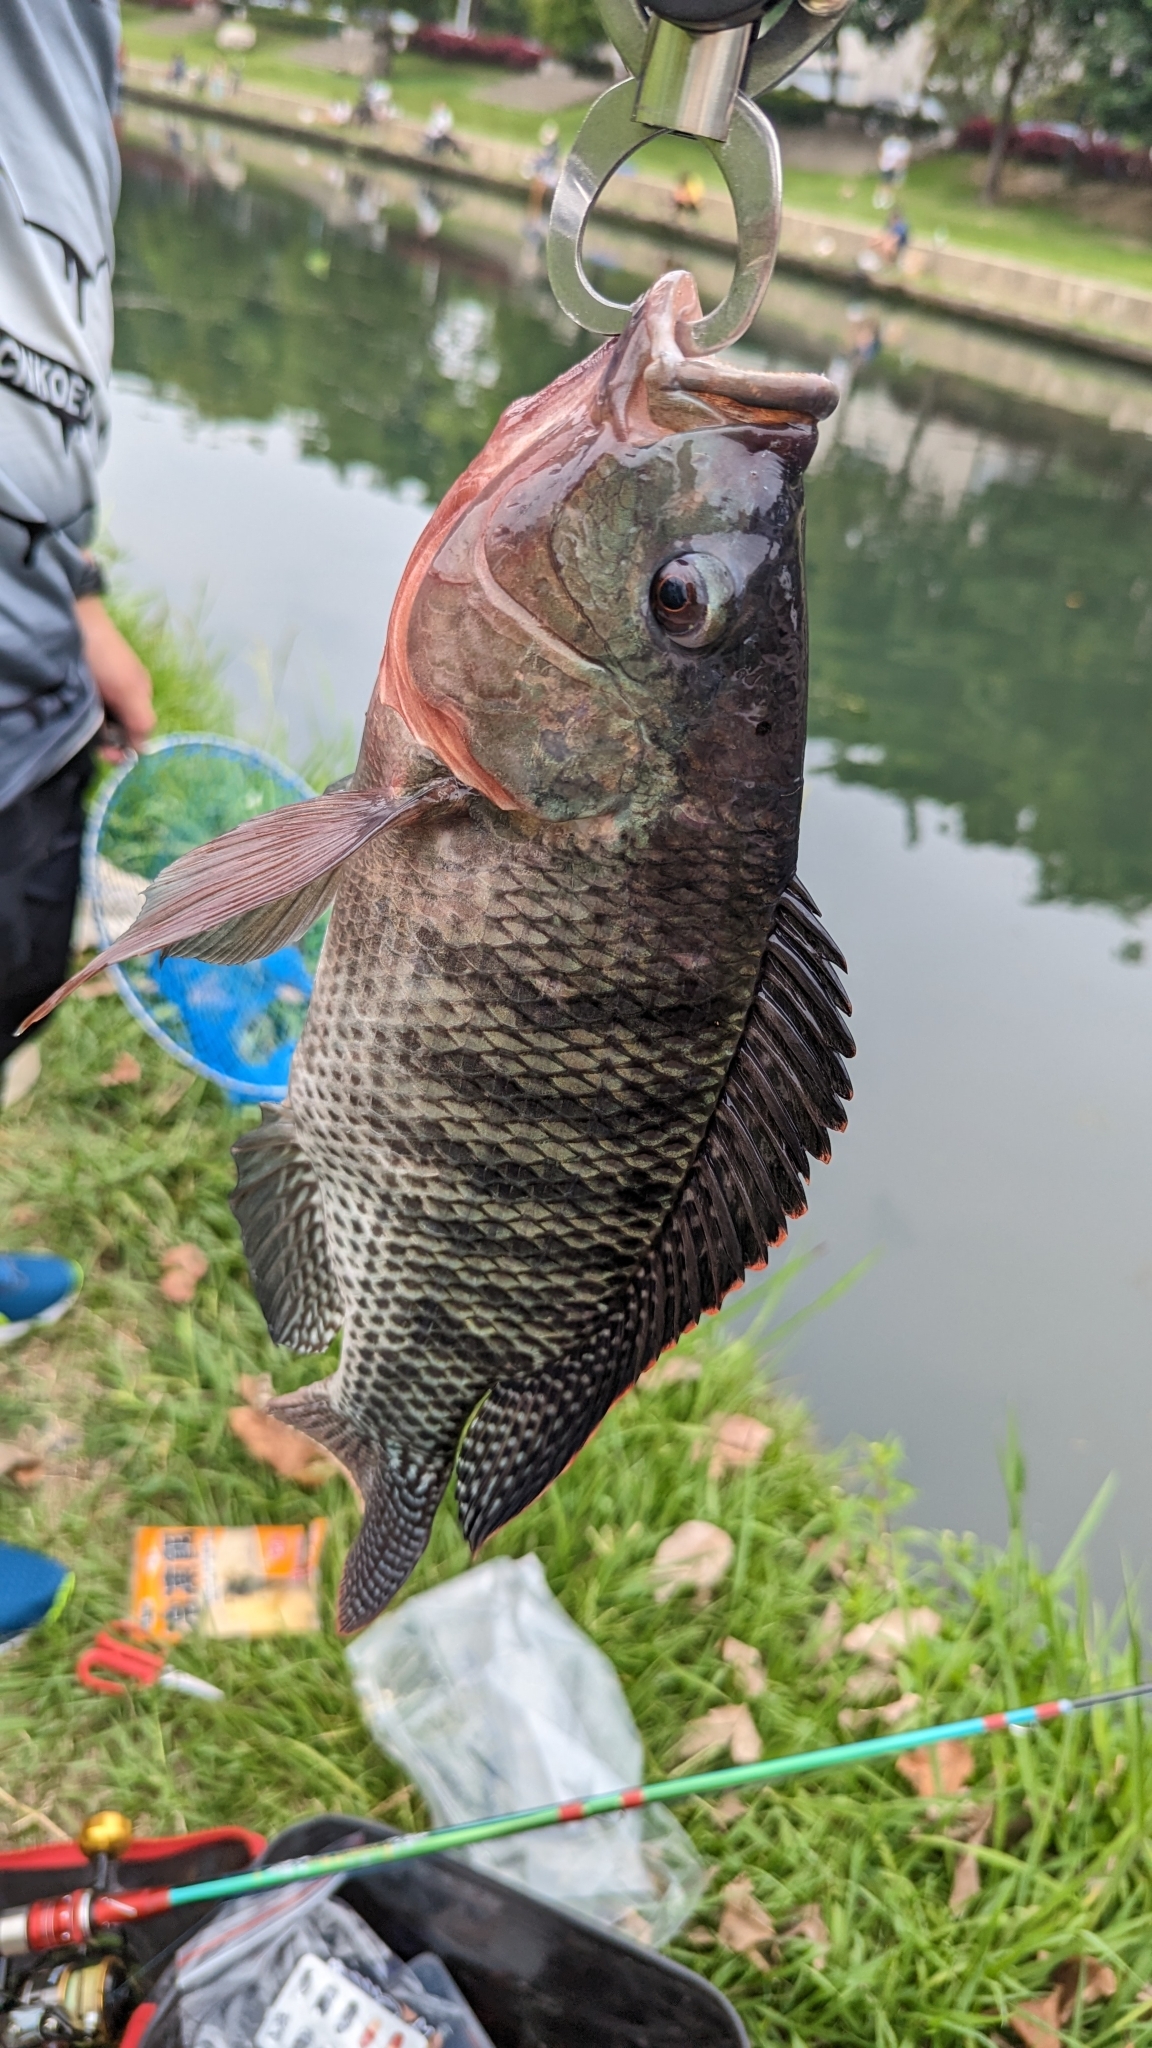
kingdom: Animalia
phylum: Chordata
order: Perciformes
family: Cichlidae
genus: Oreochromis
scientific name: Oreochromis niloticus
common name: Nile tilapia
